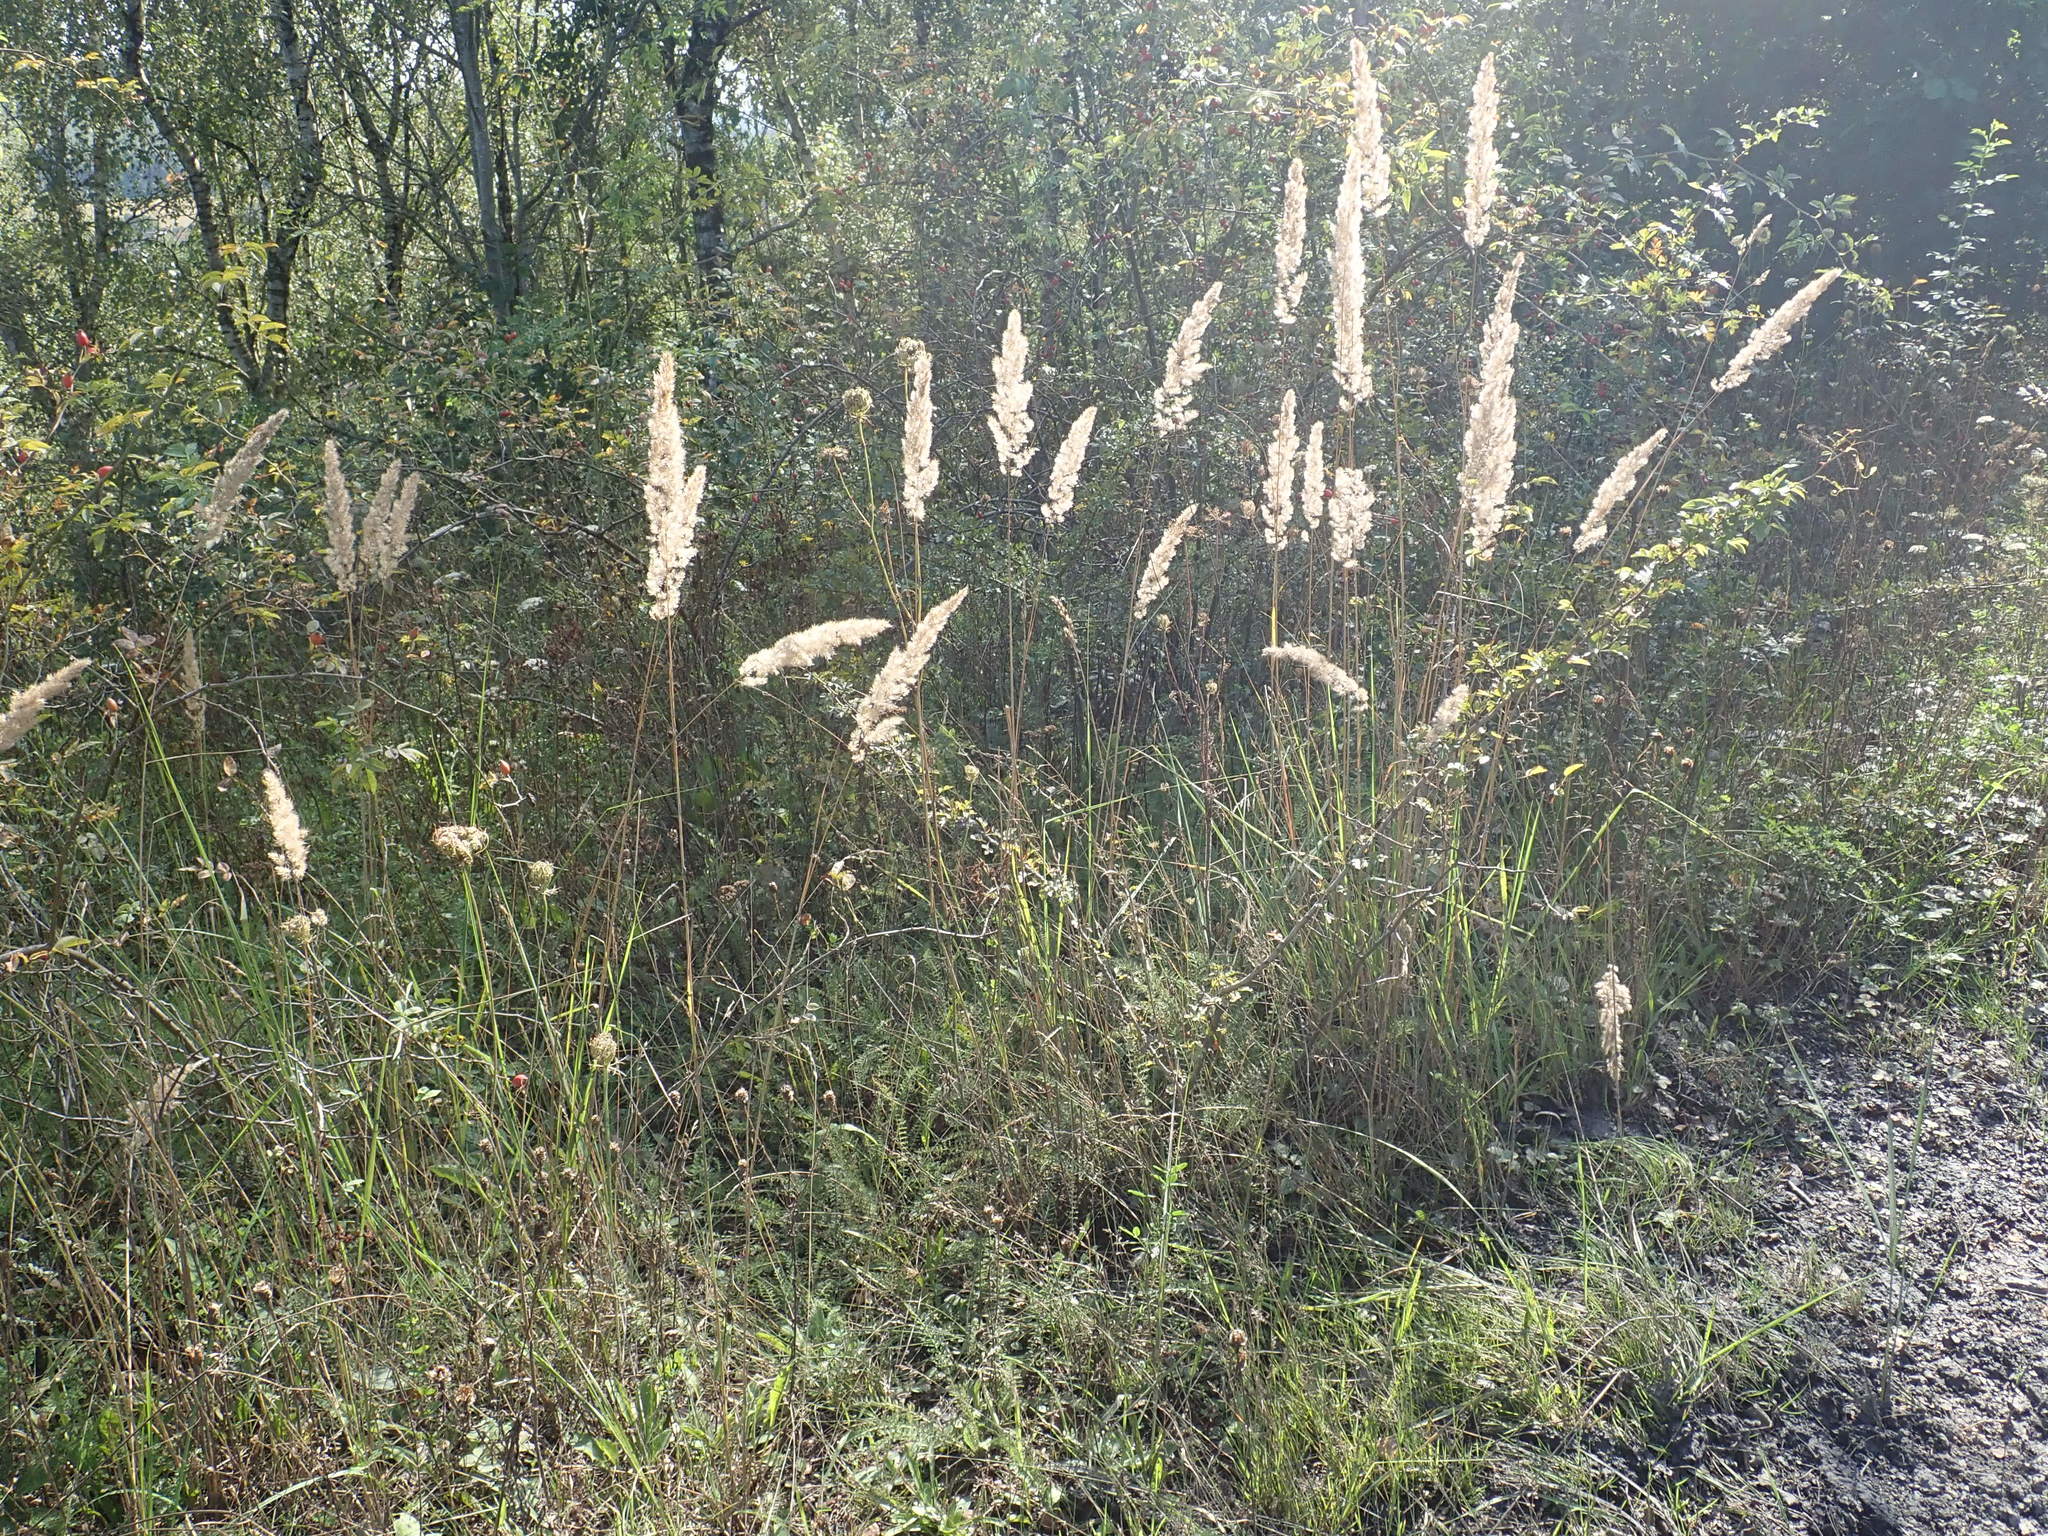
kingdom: Plantae
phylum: Tracheophyta
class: Liliopsida
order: Poales
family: Poaceae
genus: Calamagrostis
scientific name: Calamagrostis epigejos
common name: Wood small-reed
